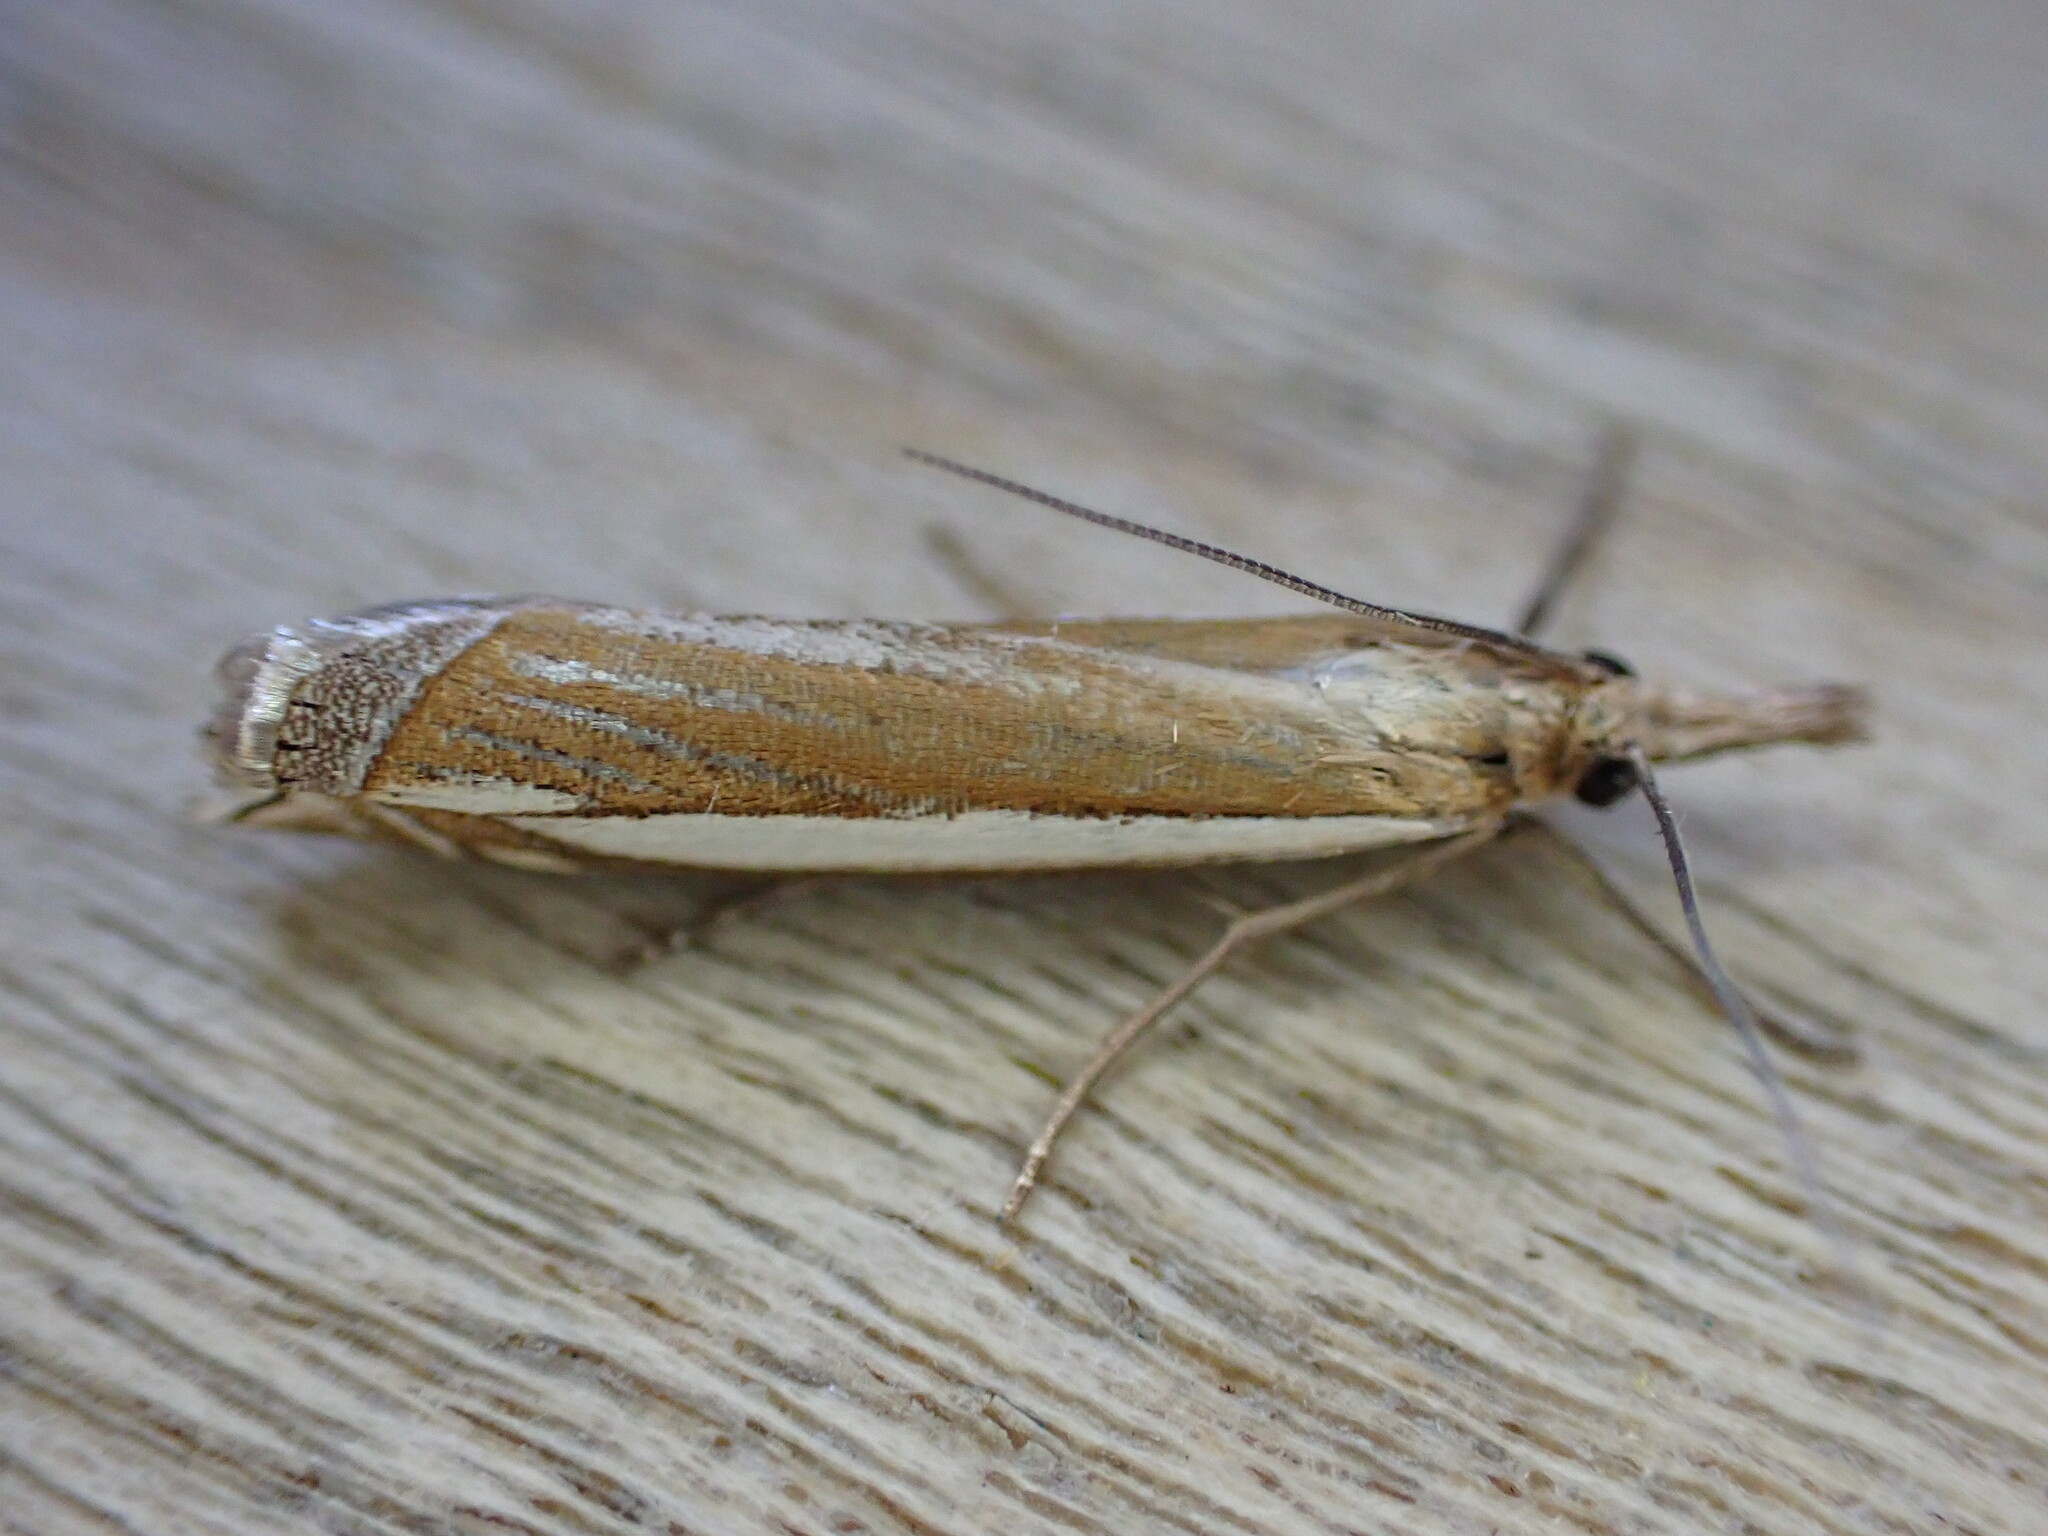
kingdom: Animalia
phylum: Arthropoda
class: Insecta
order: Lepidoptera
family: Crambidae
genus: Crambus
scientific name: Crambus pascuella
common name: Inlaid grass-veneer
